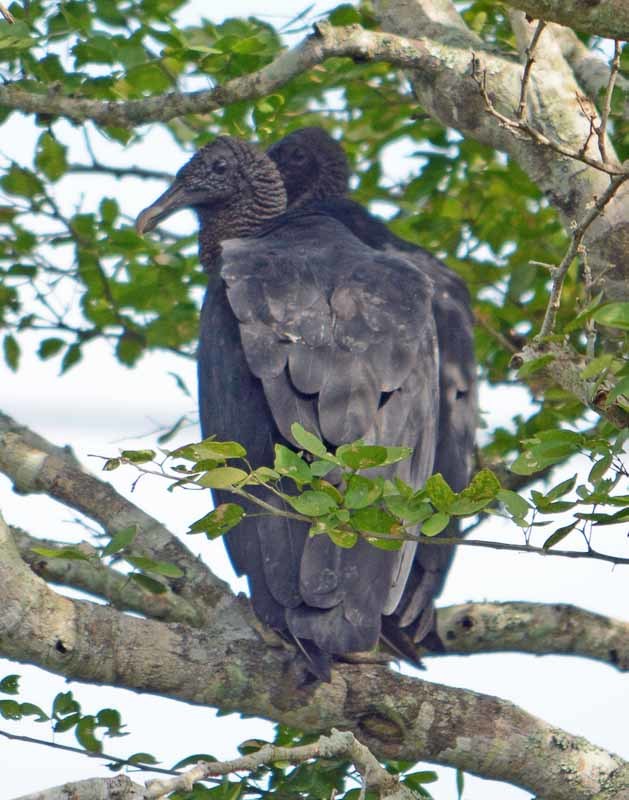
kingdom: Animalia
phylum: Chordata
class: Aves
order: Accipitriformes
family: Cathartidae
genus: Coragyps
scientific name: Coragyps atratus
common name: Black vulture
